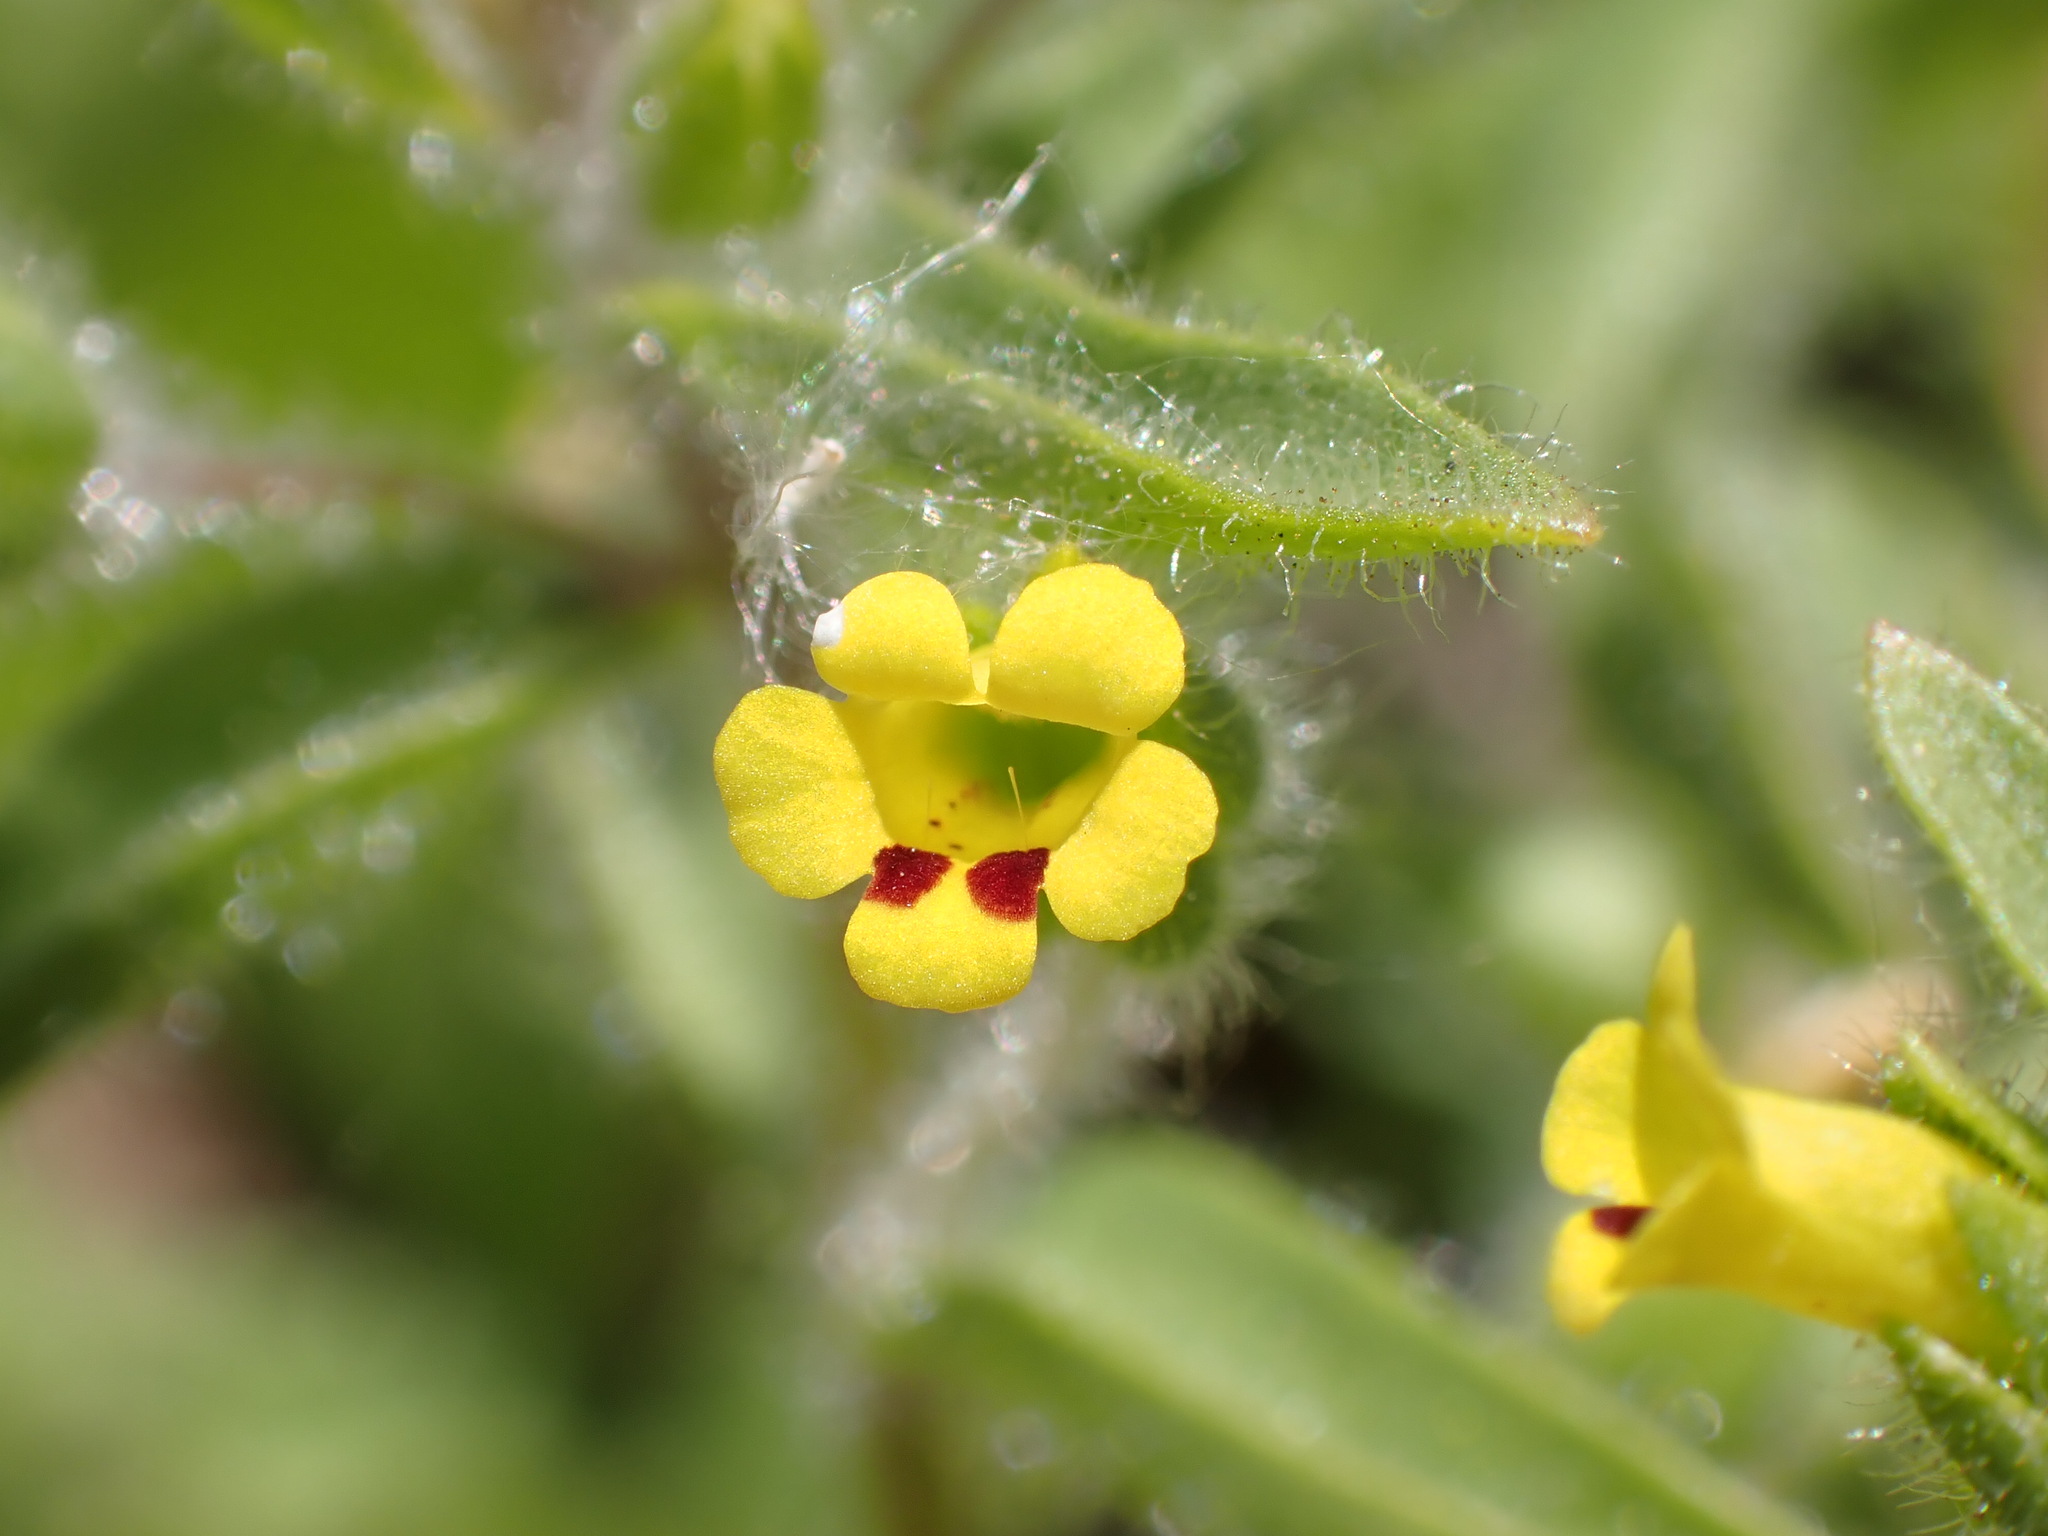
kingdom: Plantae
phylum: Tracheophyta
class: Magnoliopsida
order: Lamiales
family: Phrymaceae
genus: Mimetanthe
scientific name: Mimetanthe pilosa
